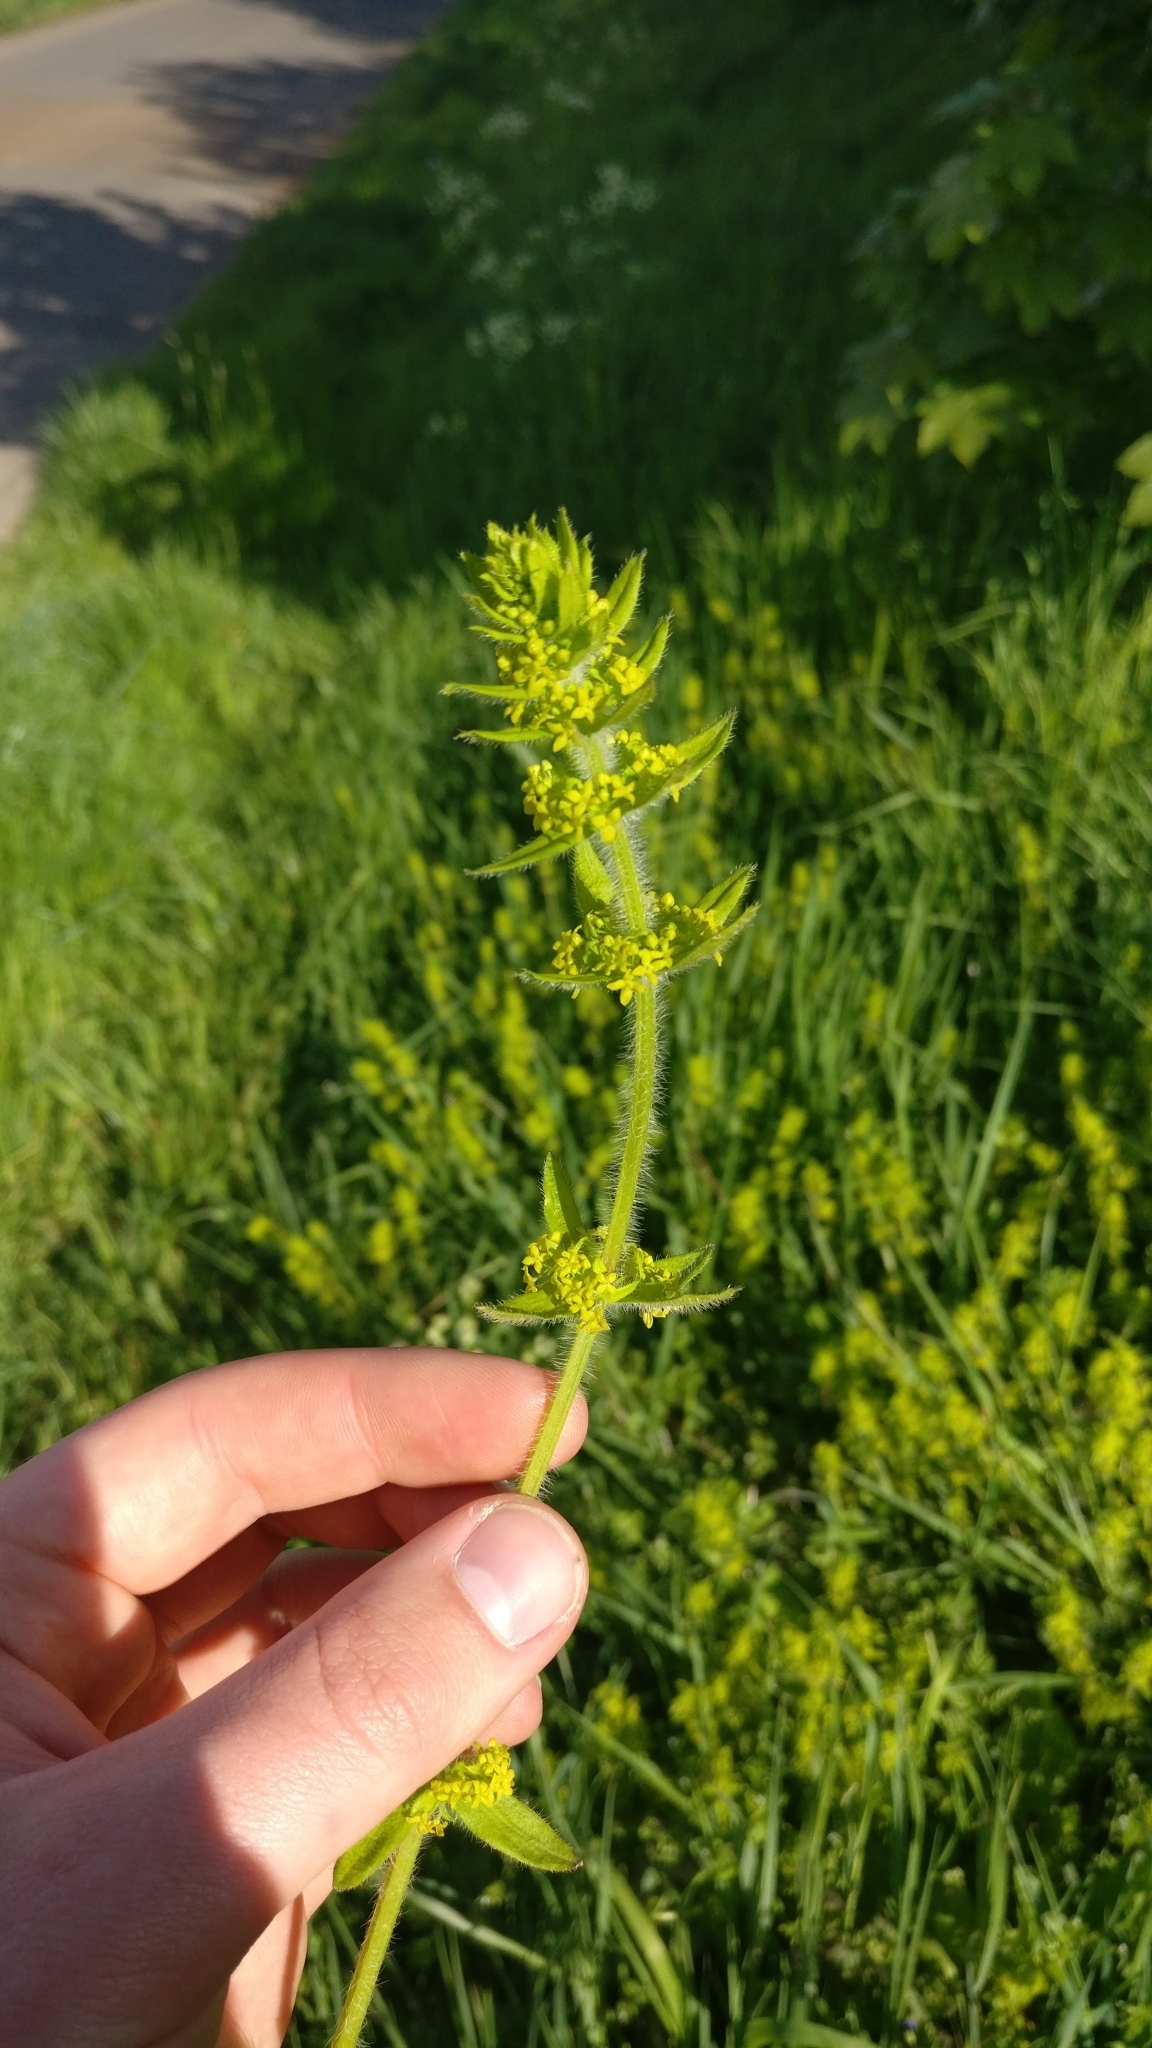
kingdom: Plantae
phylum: Tracheophyta
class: Magnoliopsida
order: Gentianales
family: Rubiaceae
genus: Cruciata
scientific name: Cruciata laevipes
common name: Crosswort
